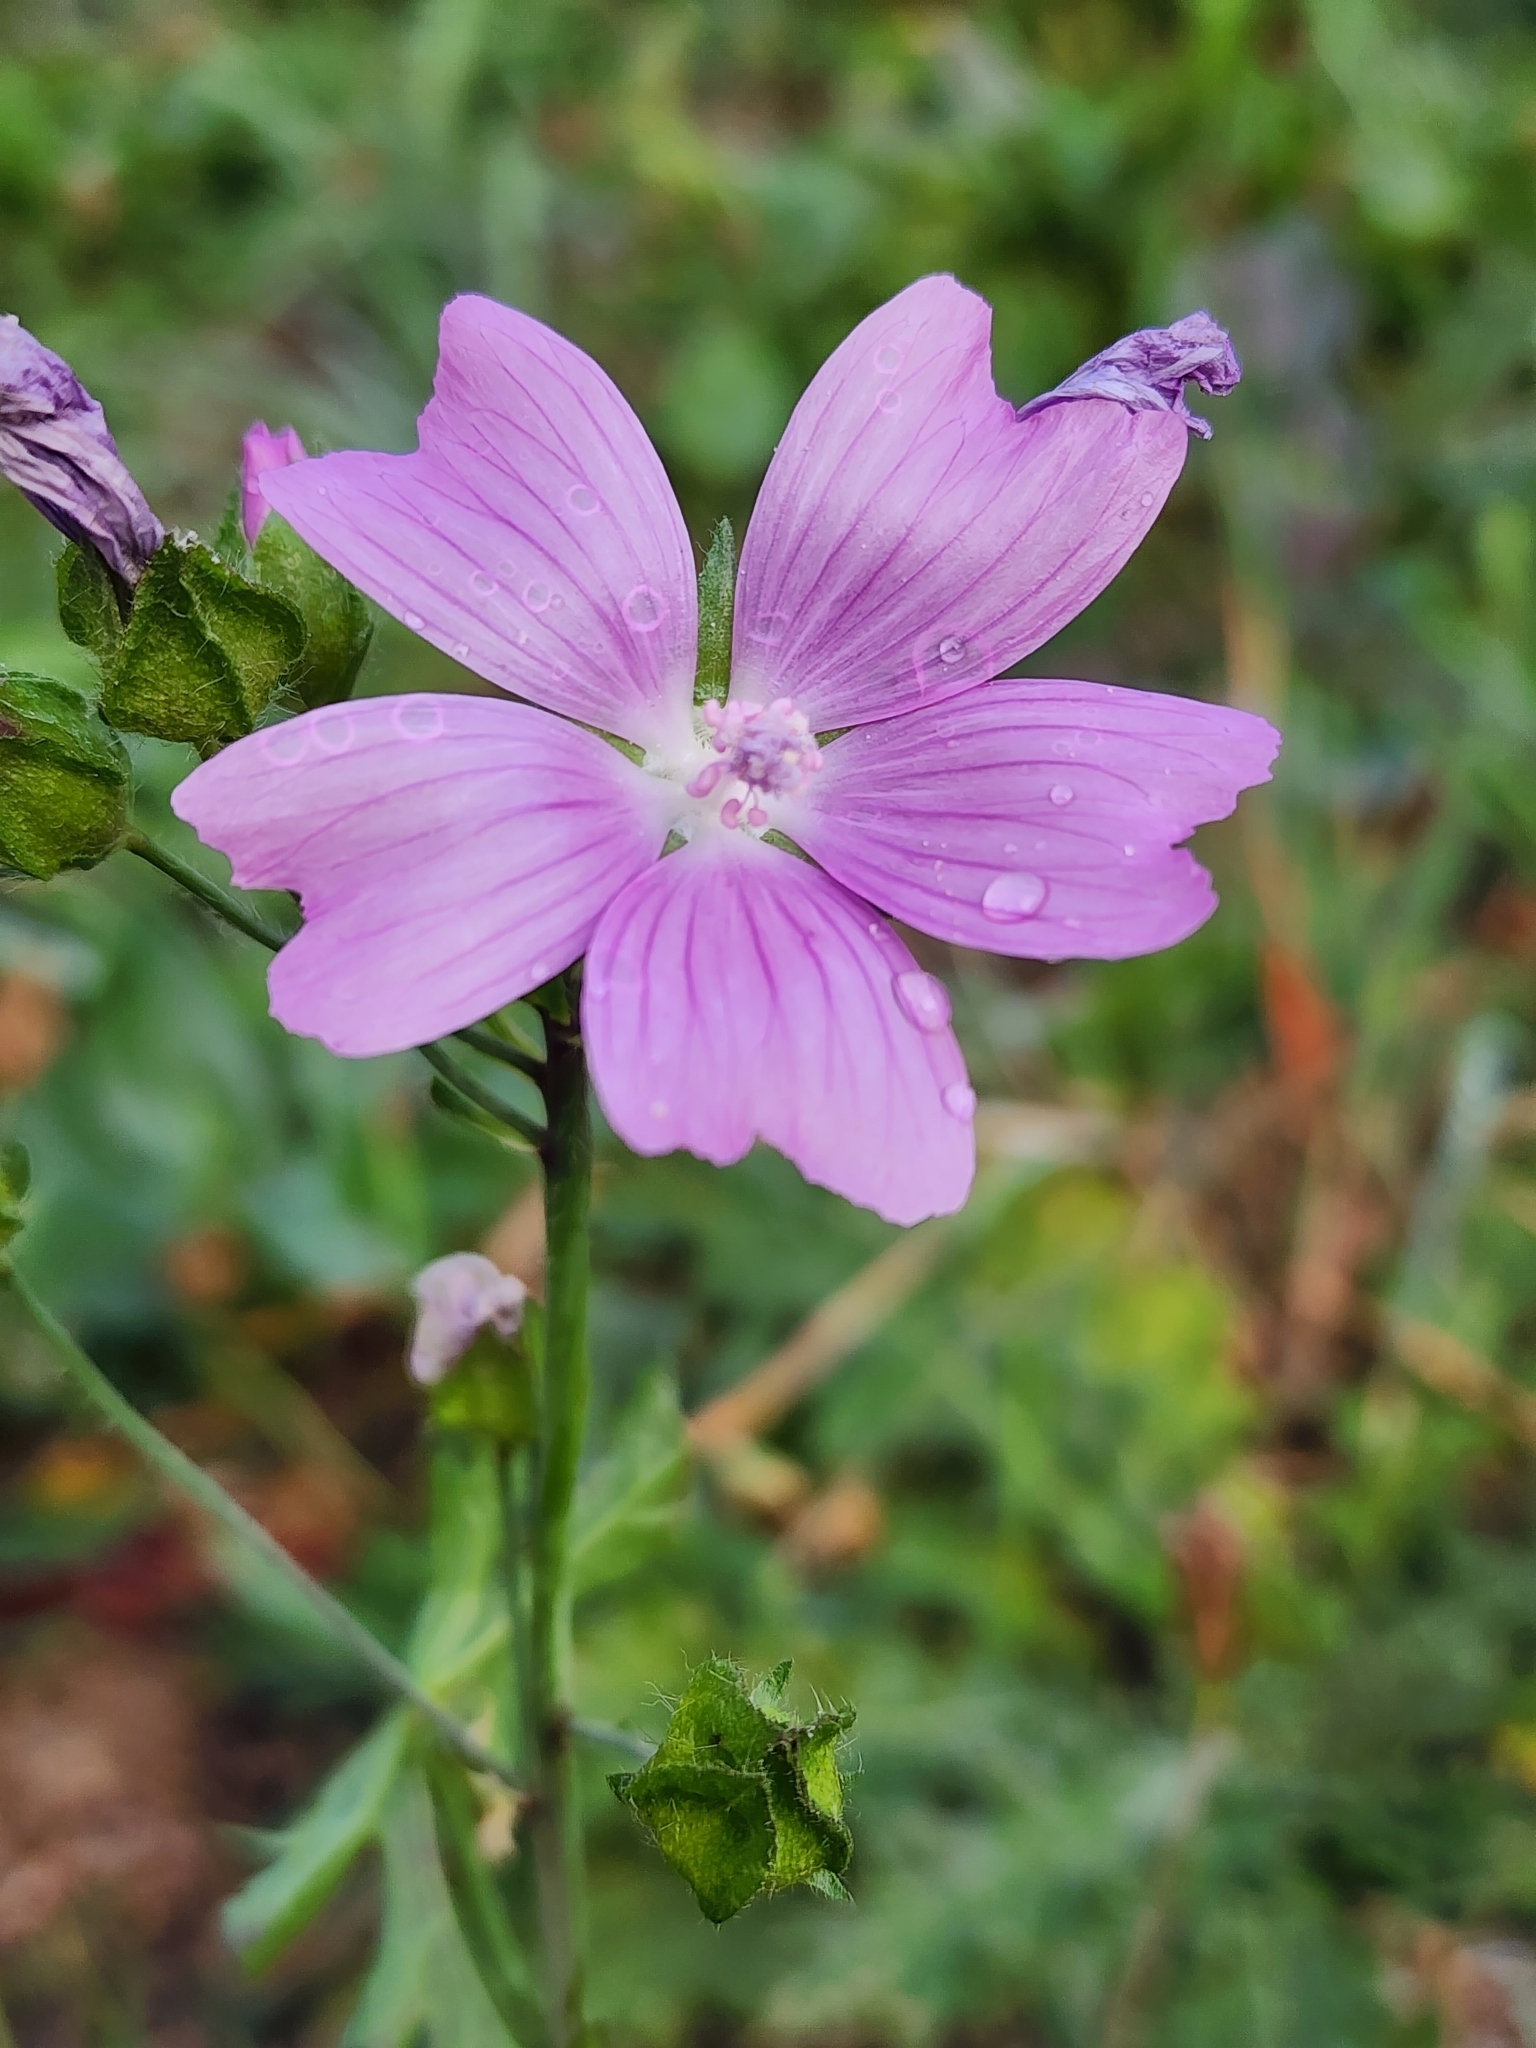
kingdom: Plantae
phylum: Tracheophyta
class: Magnoliopsida
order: Malvales
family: Malvaceae
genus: Malva
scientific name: Malva moschata
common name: Musk mallow
